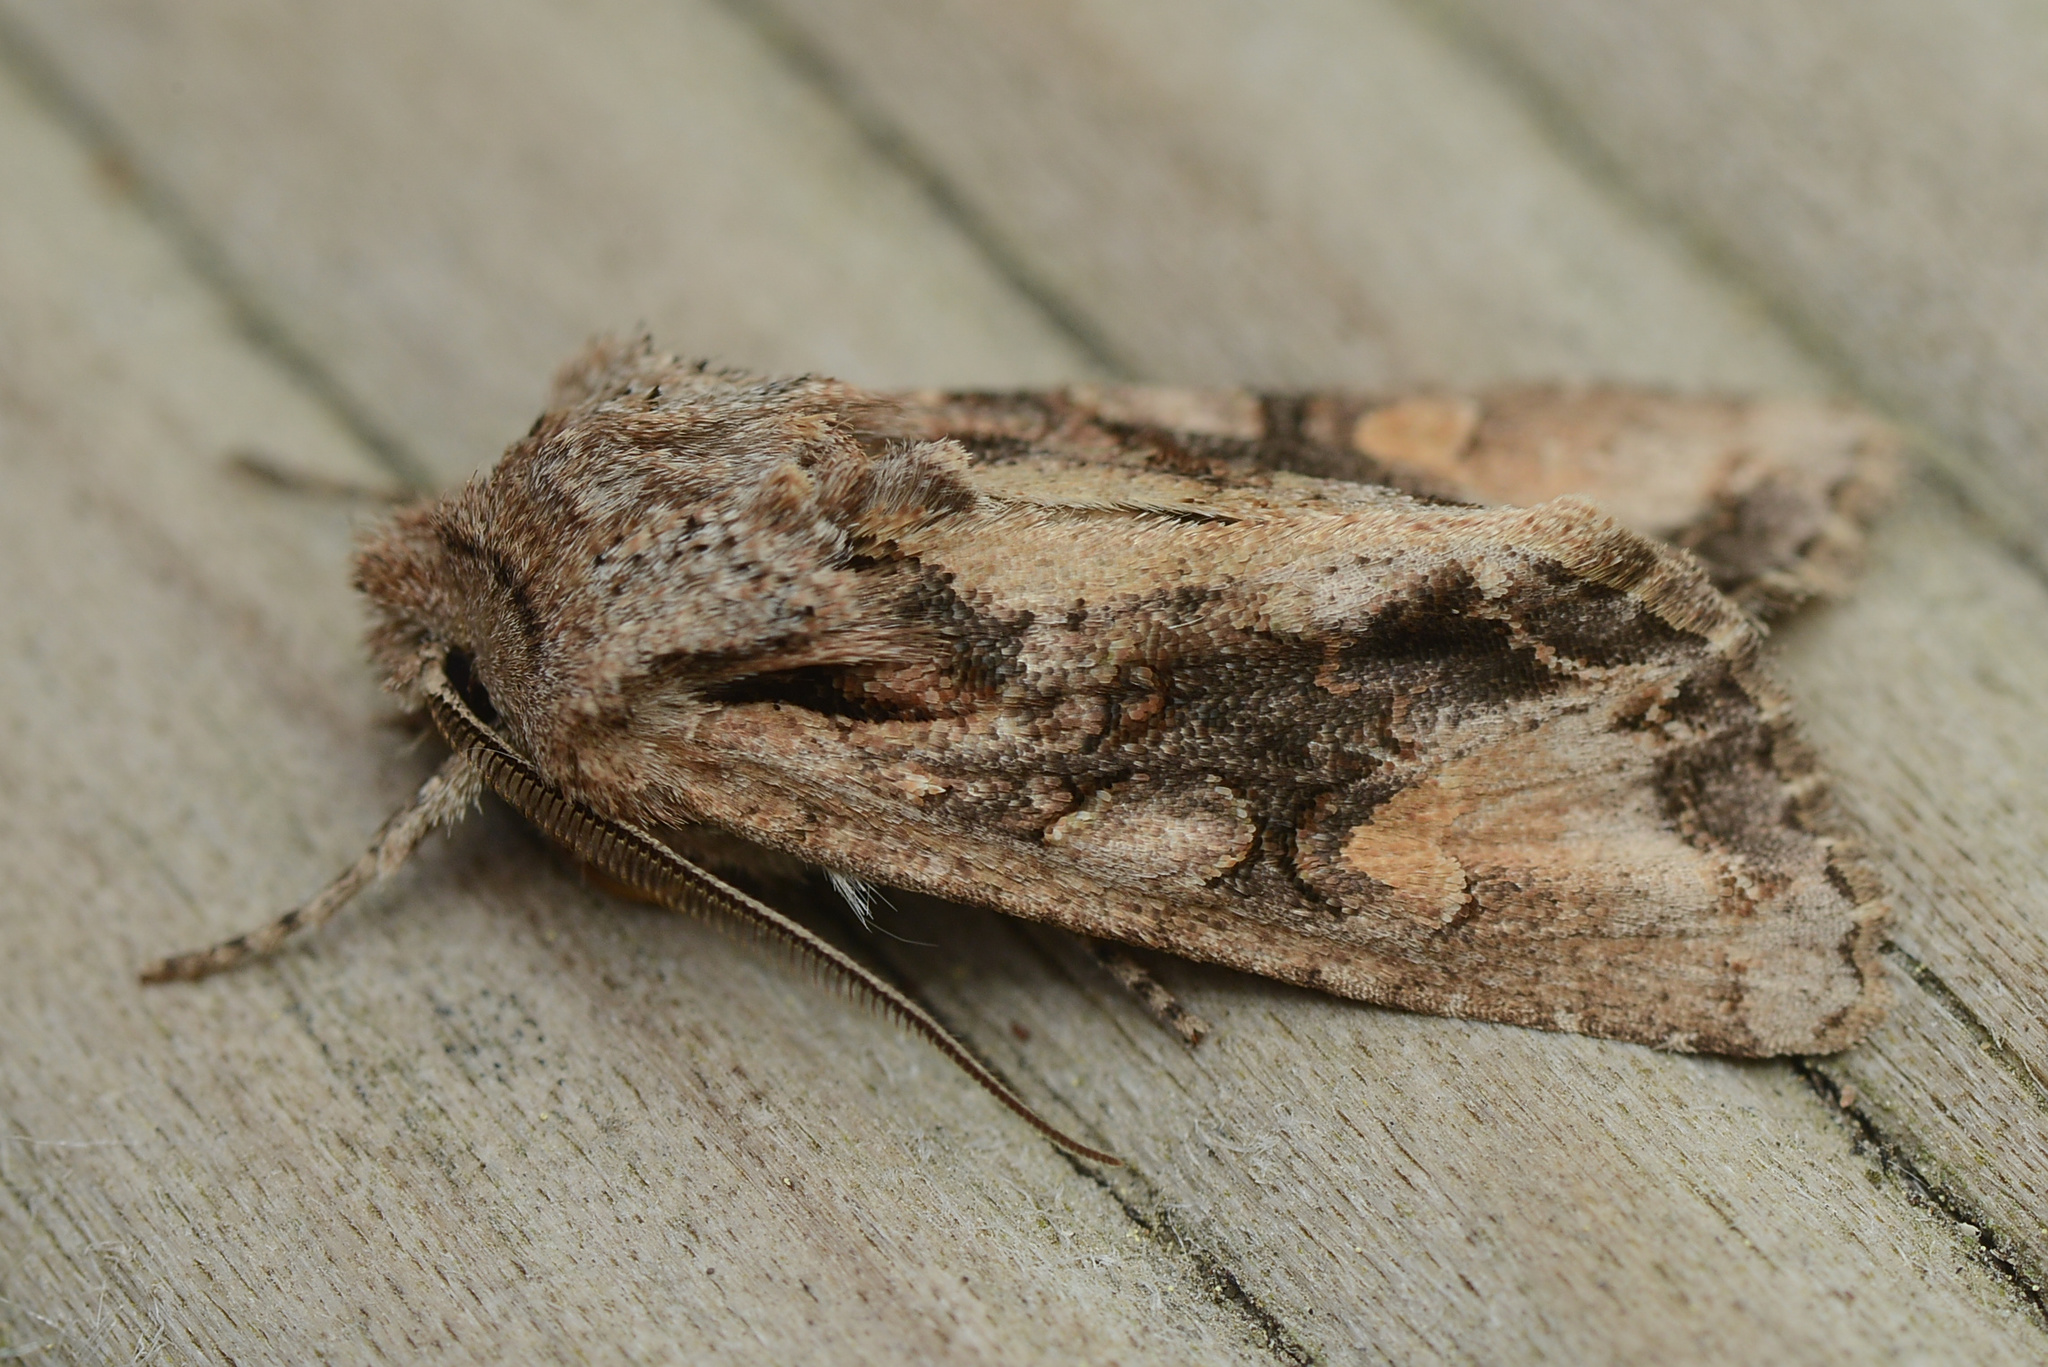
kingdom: Animalia
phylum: Arthropoda
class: Insecta
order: Lepidoptera
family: Noctuidae
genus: Ichneutica
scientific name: Ichneutica
